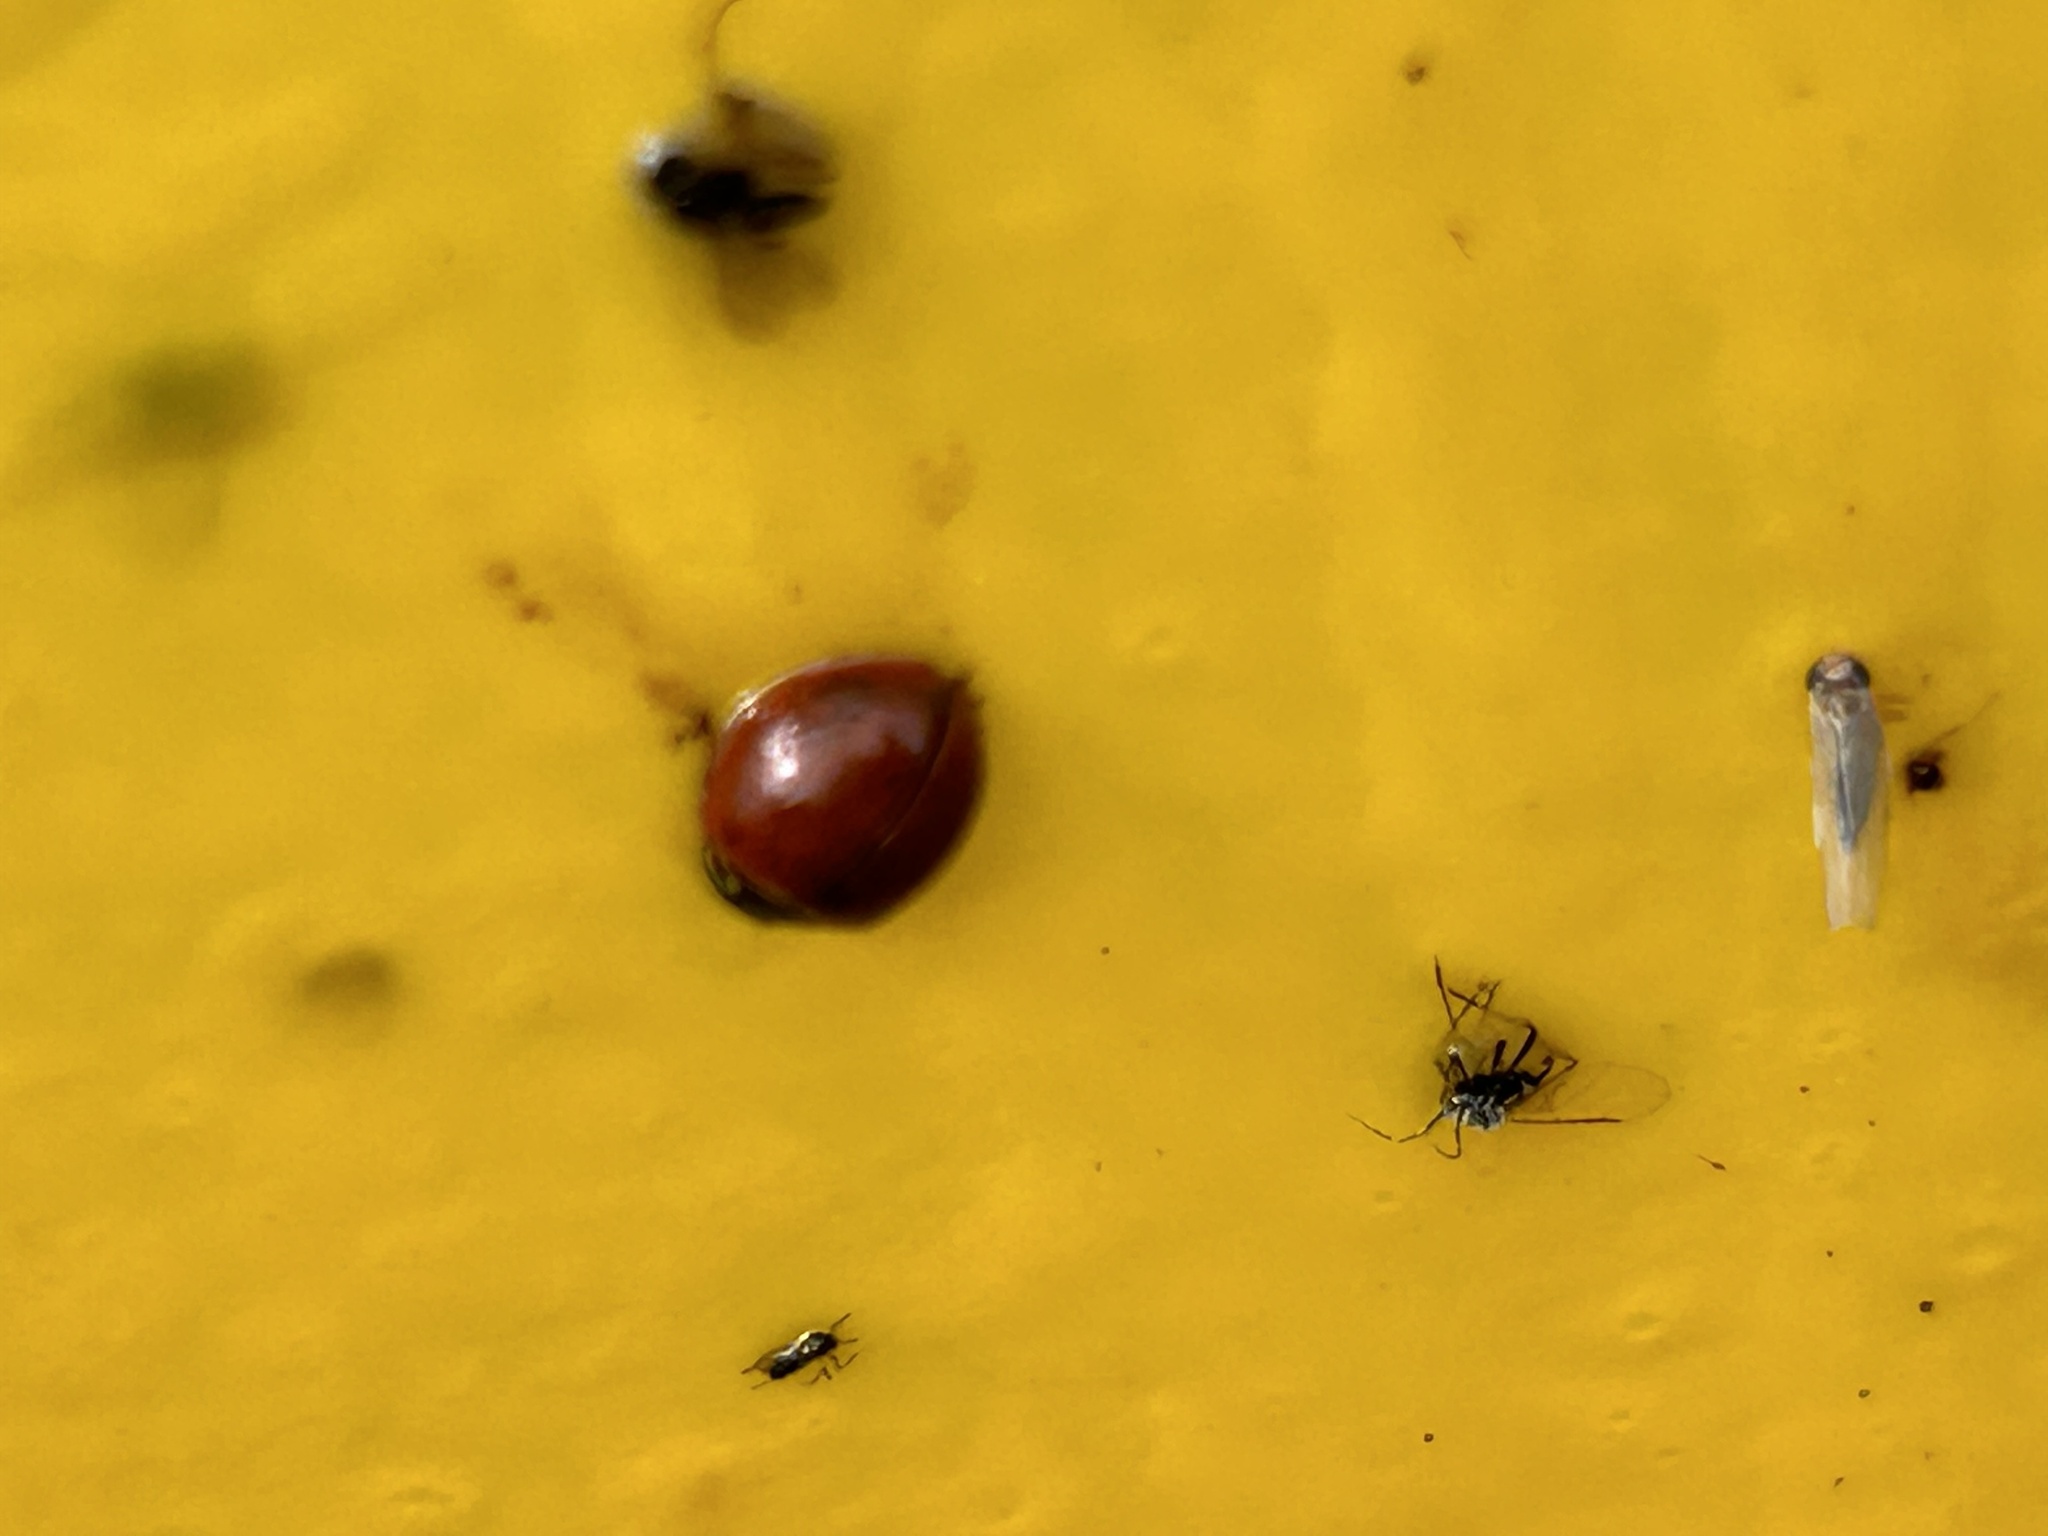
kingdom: Animalia
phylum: Arthropoda
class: Insecta
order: Coleoptera
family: Coccinellidae
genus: Cycloneda
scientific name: Cycloneda sanguinea
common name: Ladybird beetle
